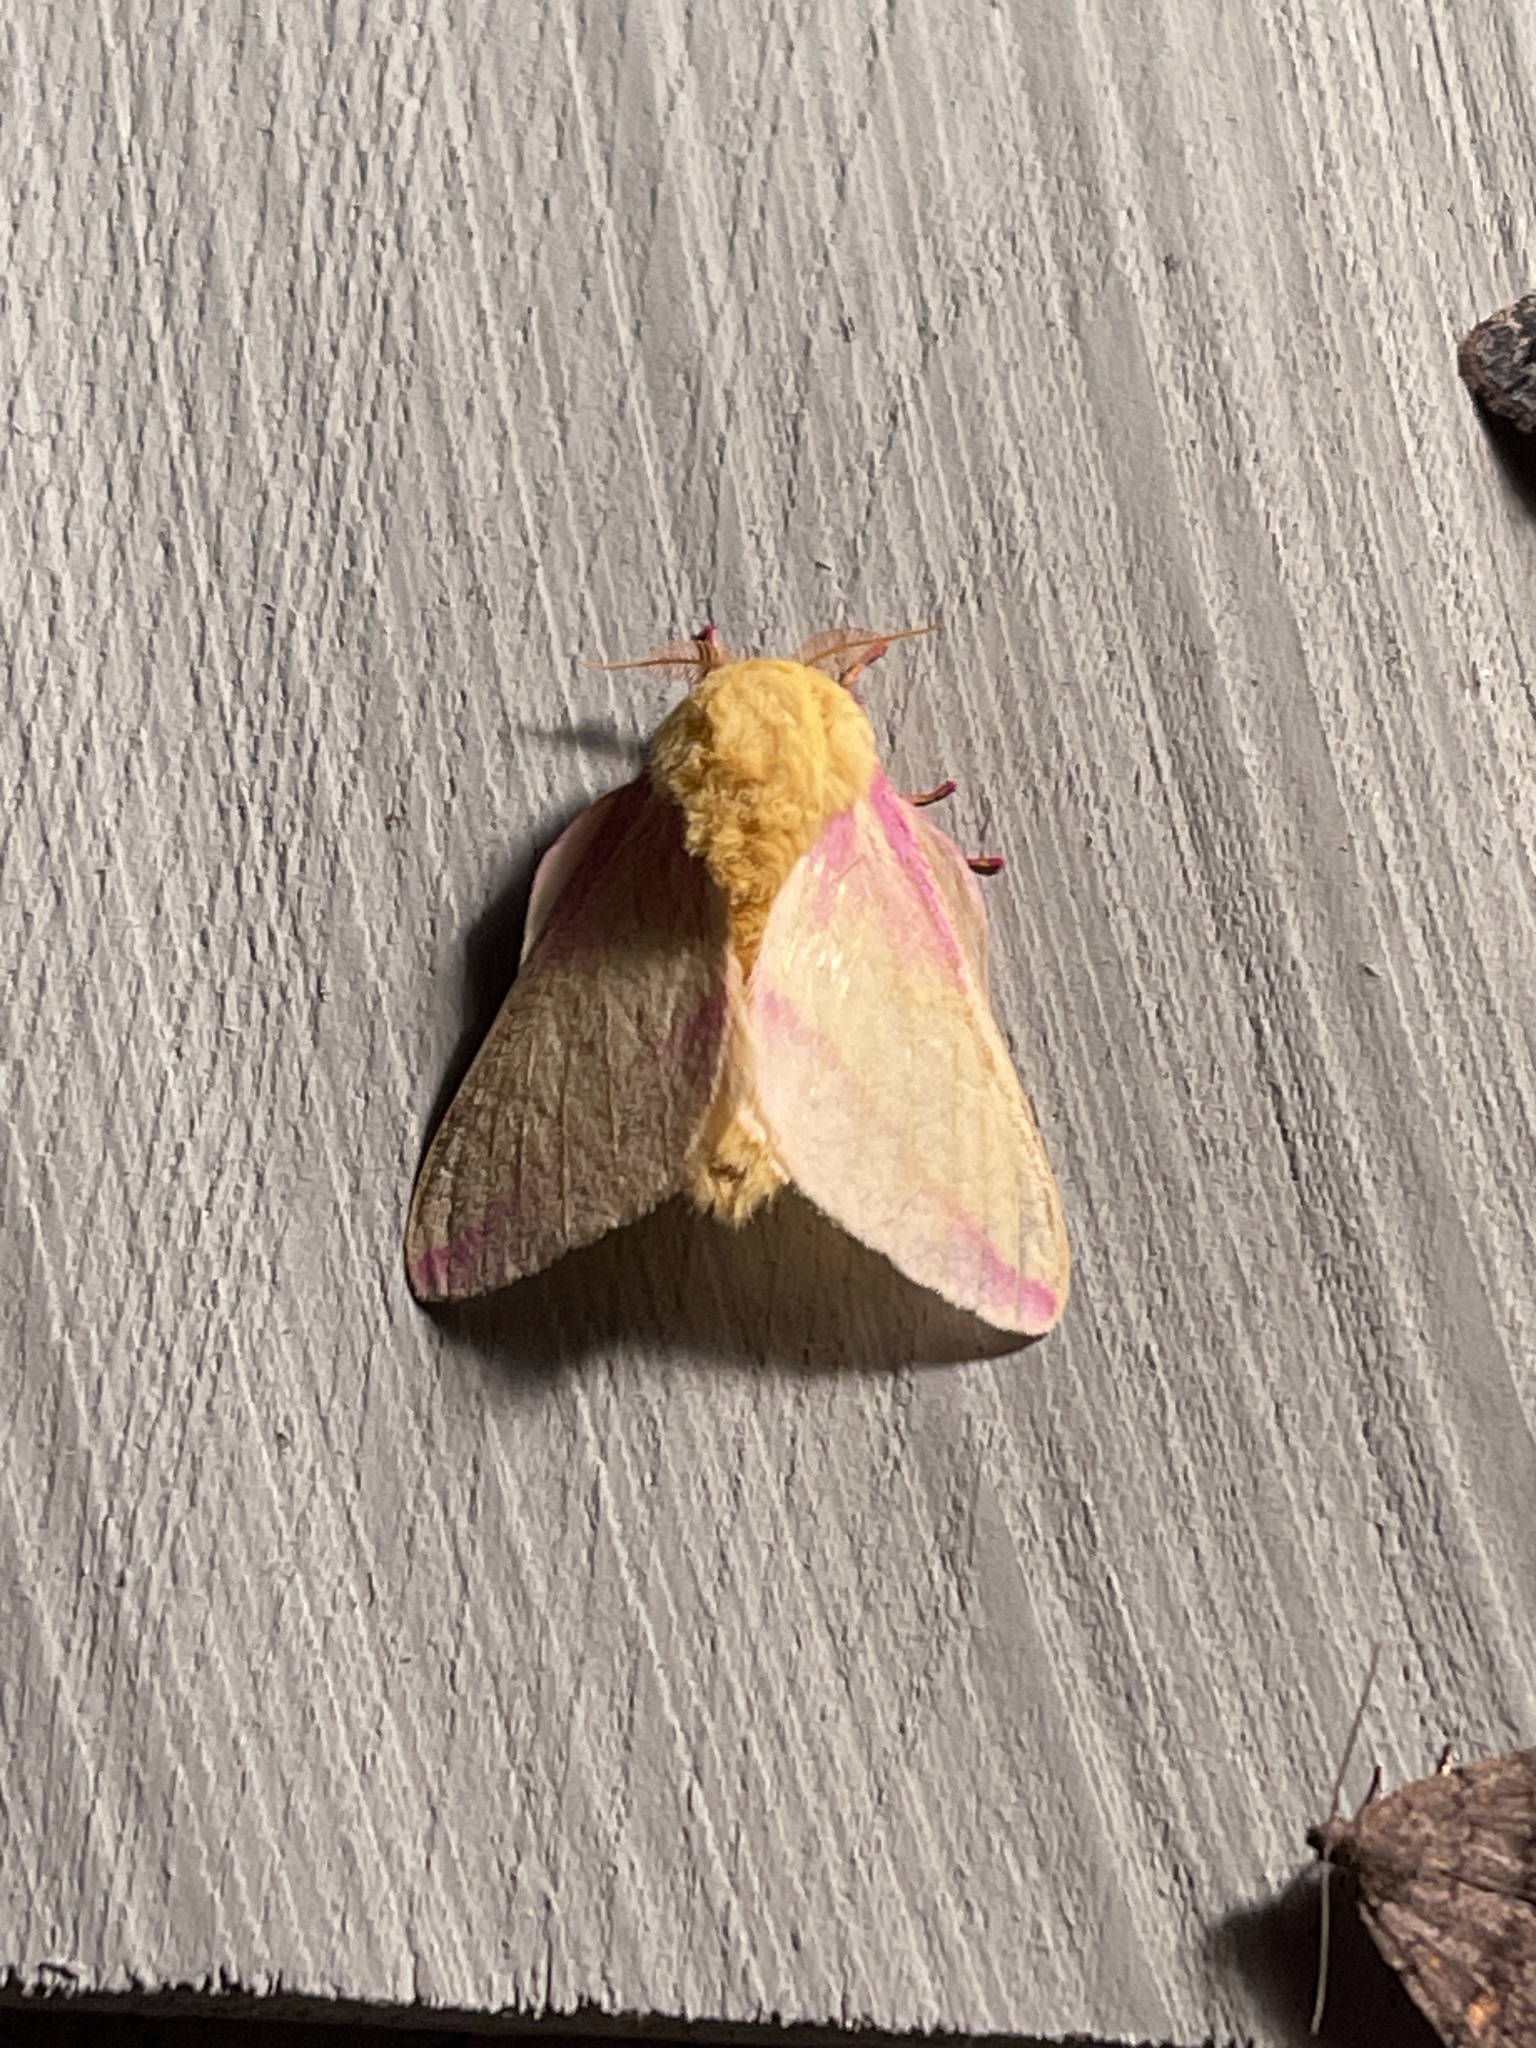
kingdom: Animalia
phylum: Arthropoda
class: Insecta
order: Lepidoptera
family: Saturniidae
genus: Dryocampa
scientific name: Dryocampa rubicunda
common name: Rosy maple moth
